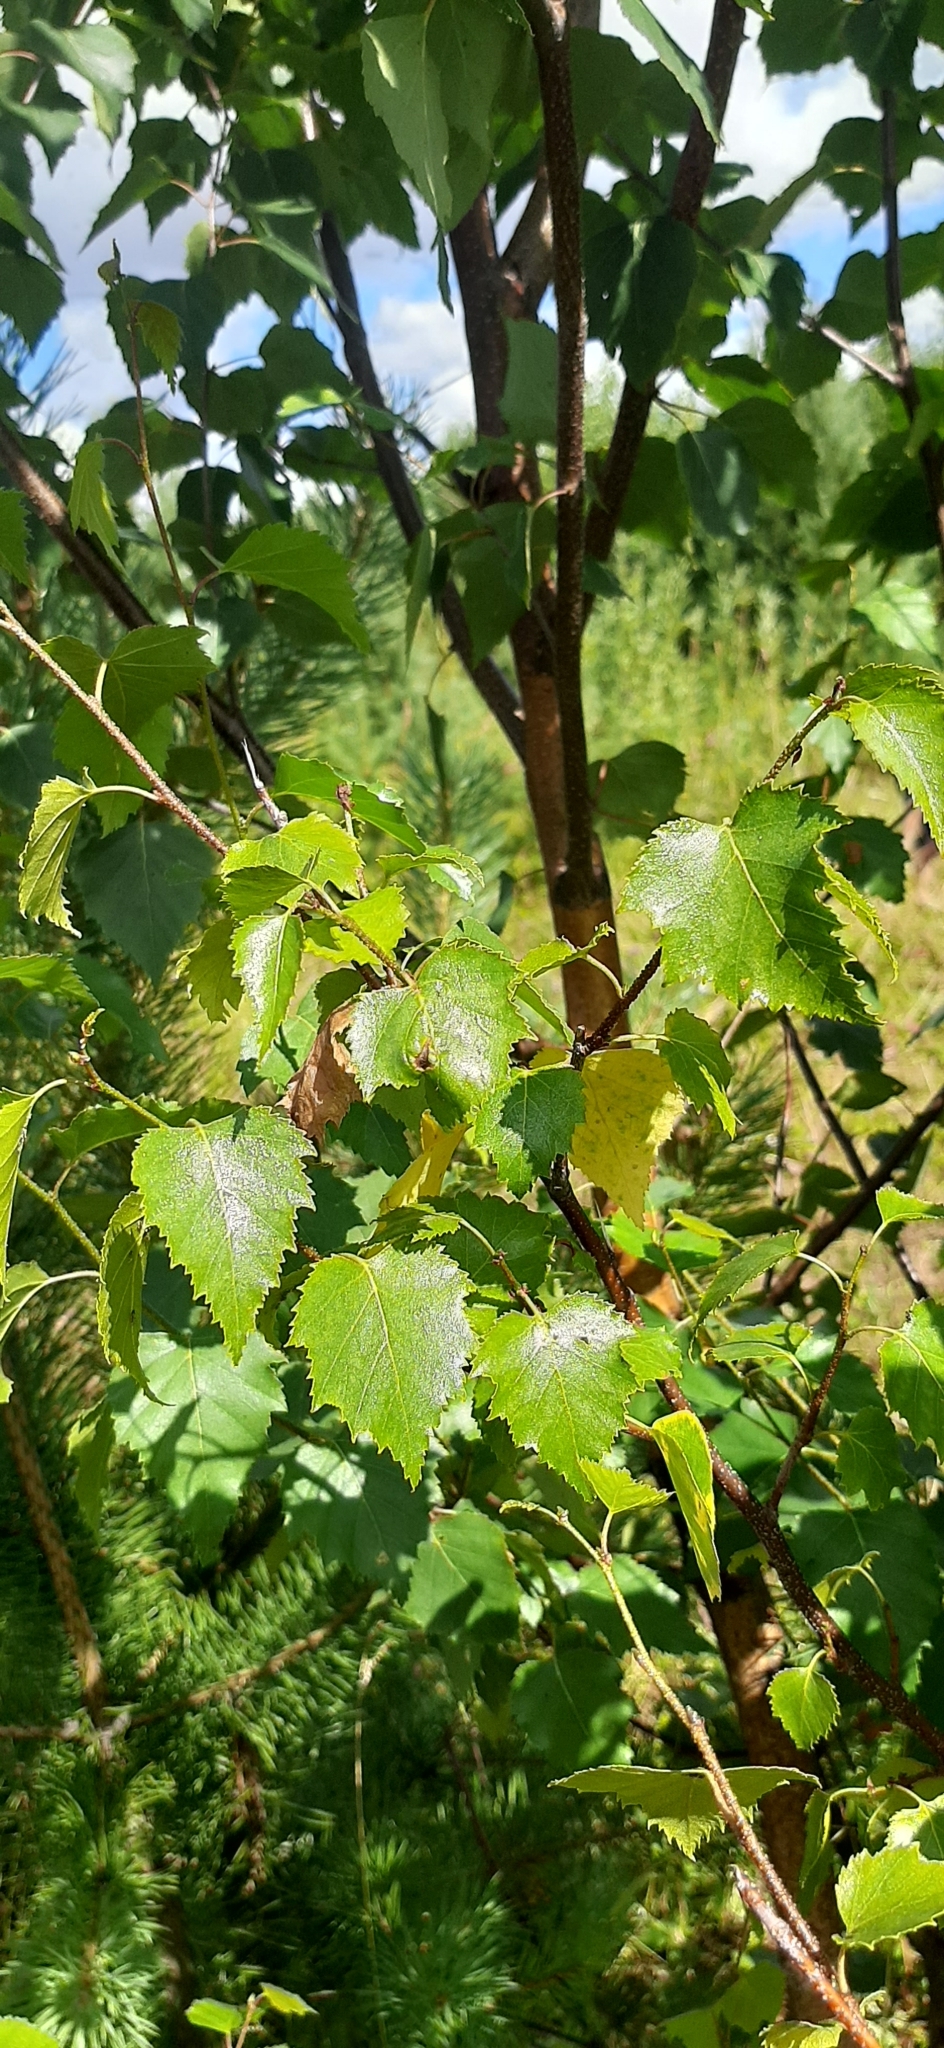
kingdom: Plantae
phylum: Tracheophyta
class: Magnoliopsida
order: Fagales
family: Betulaceae
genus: Betula
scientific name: Betula pendula
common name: Silver birch
